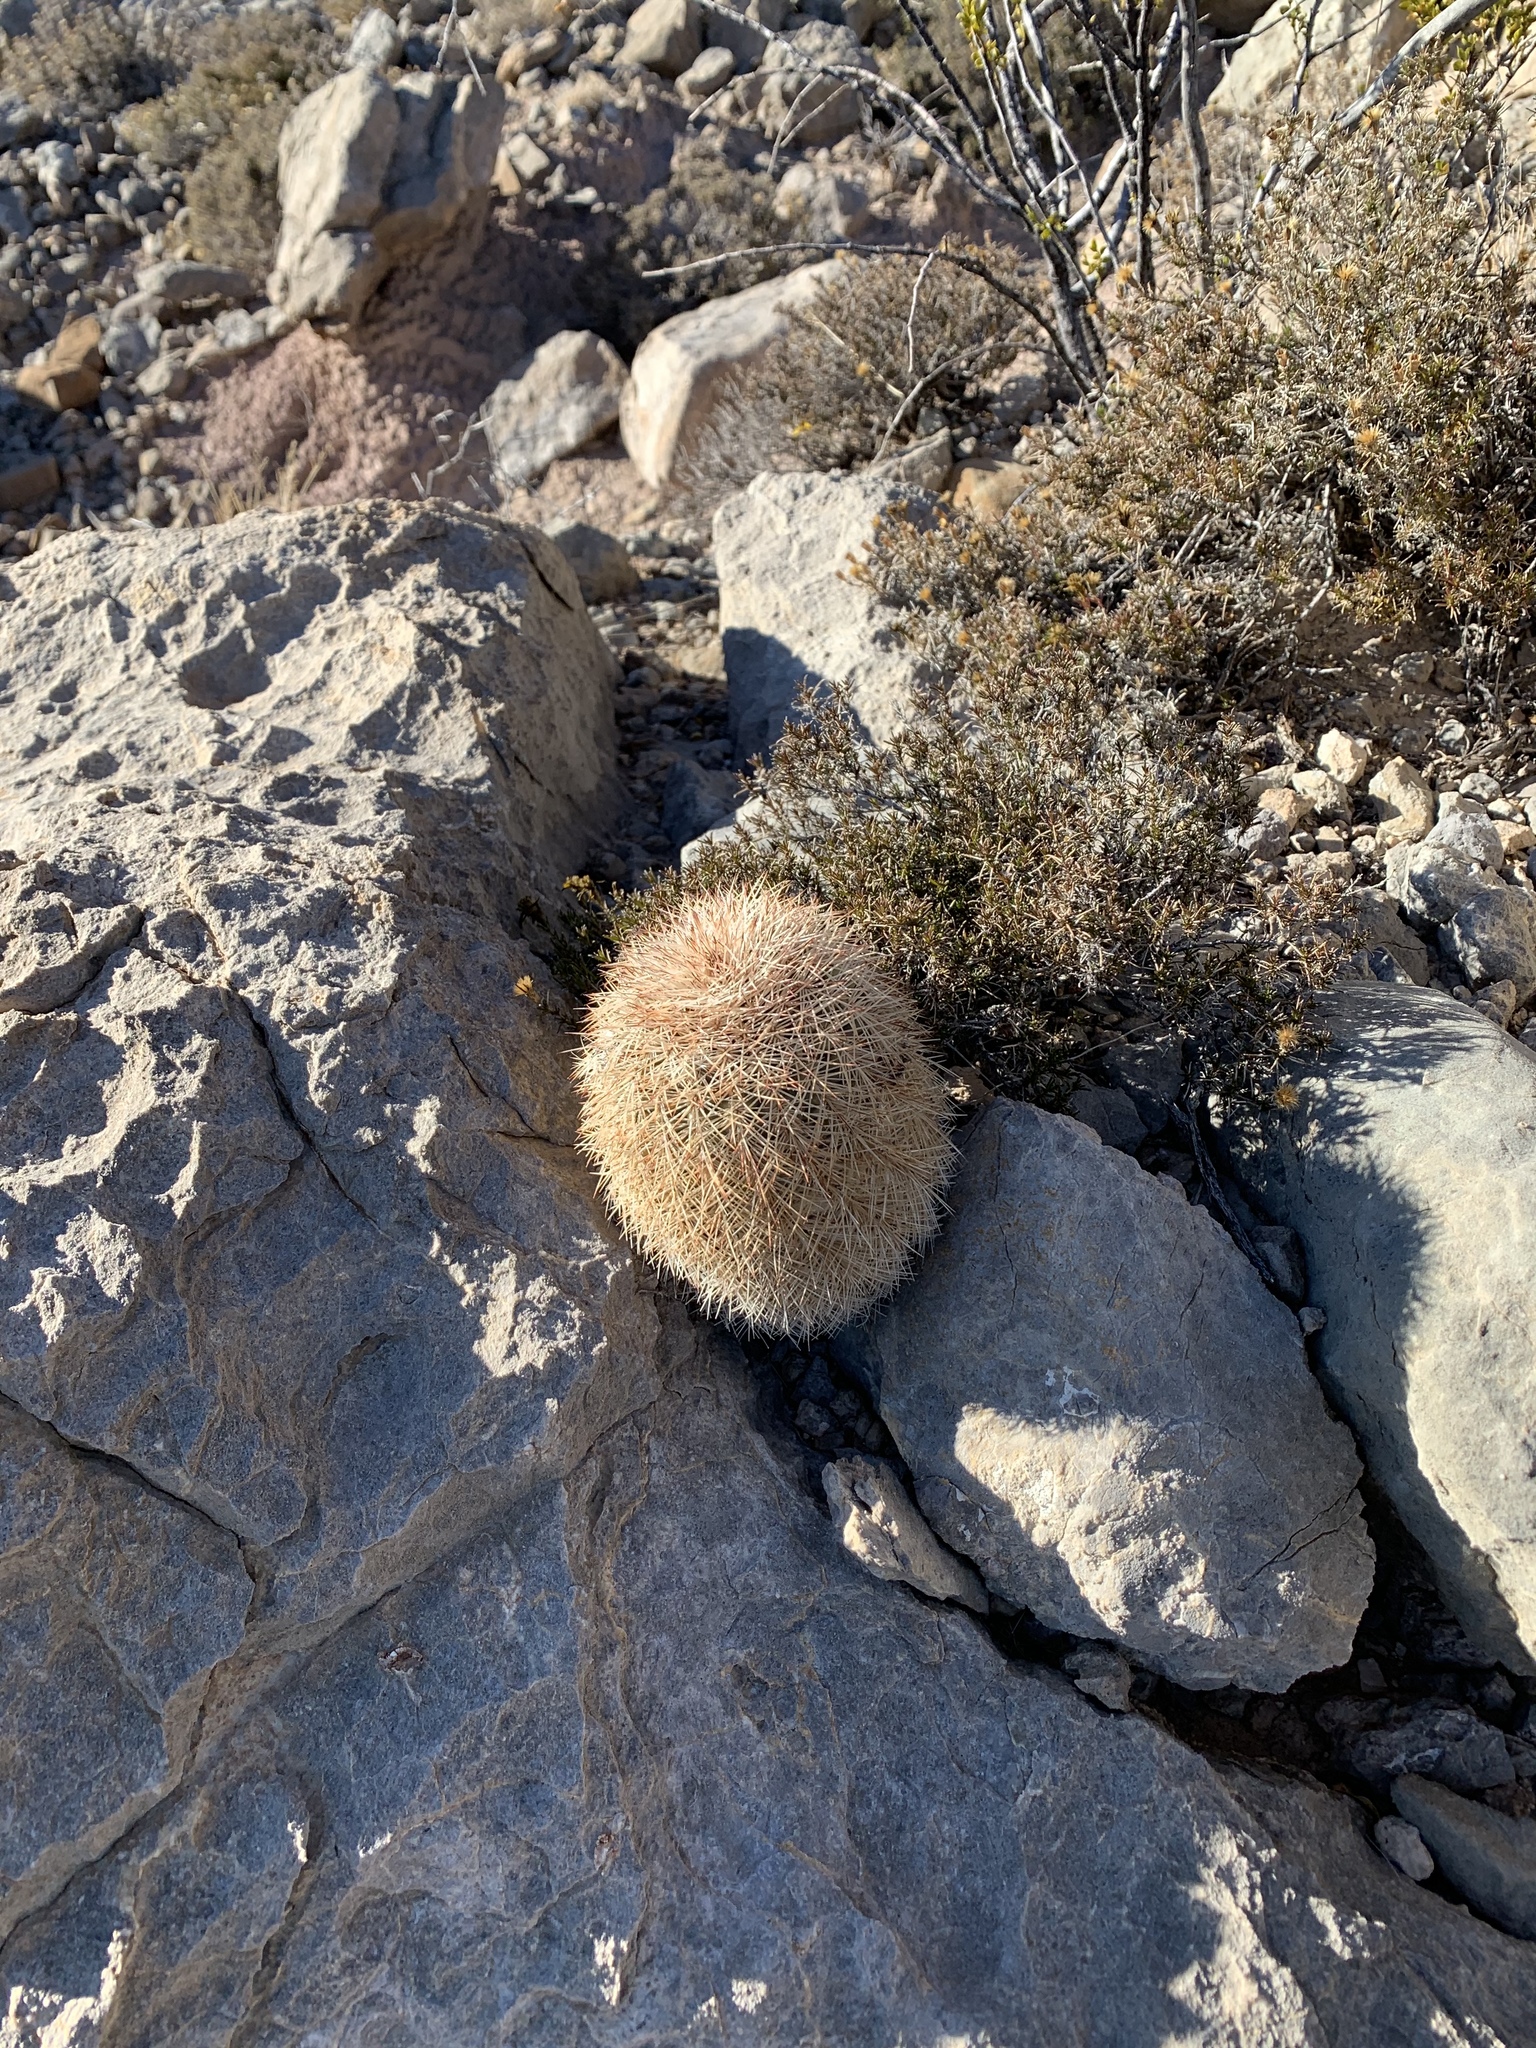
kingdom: Plantae
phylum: Tracheophyta
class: Magnoliopsida
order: Caryophyllales
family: Cactaceae
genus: Echinocereus
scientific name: Echinocereus dasyacanthus
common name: Spiny hedgehog cactus
